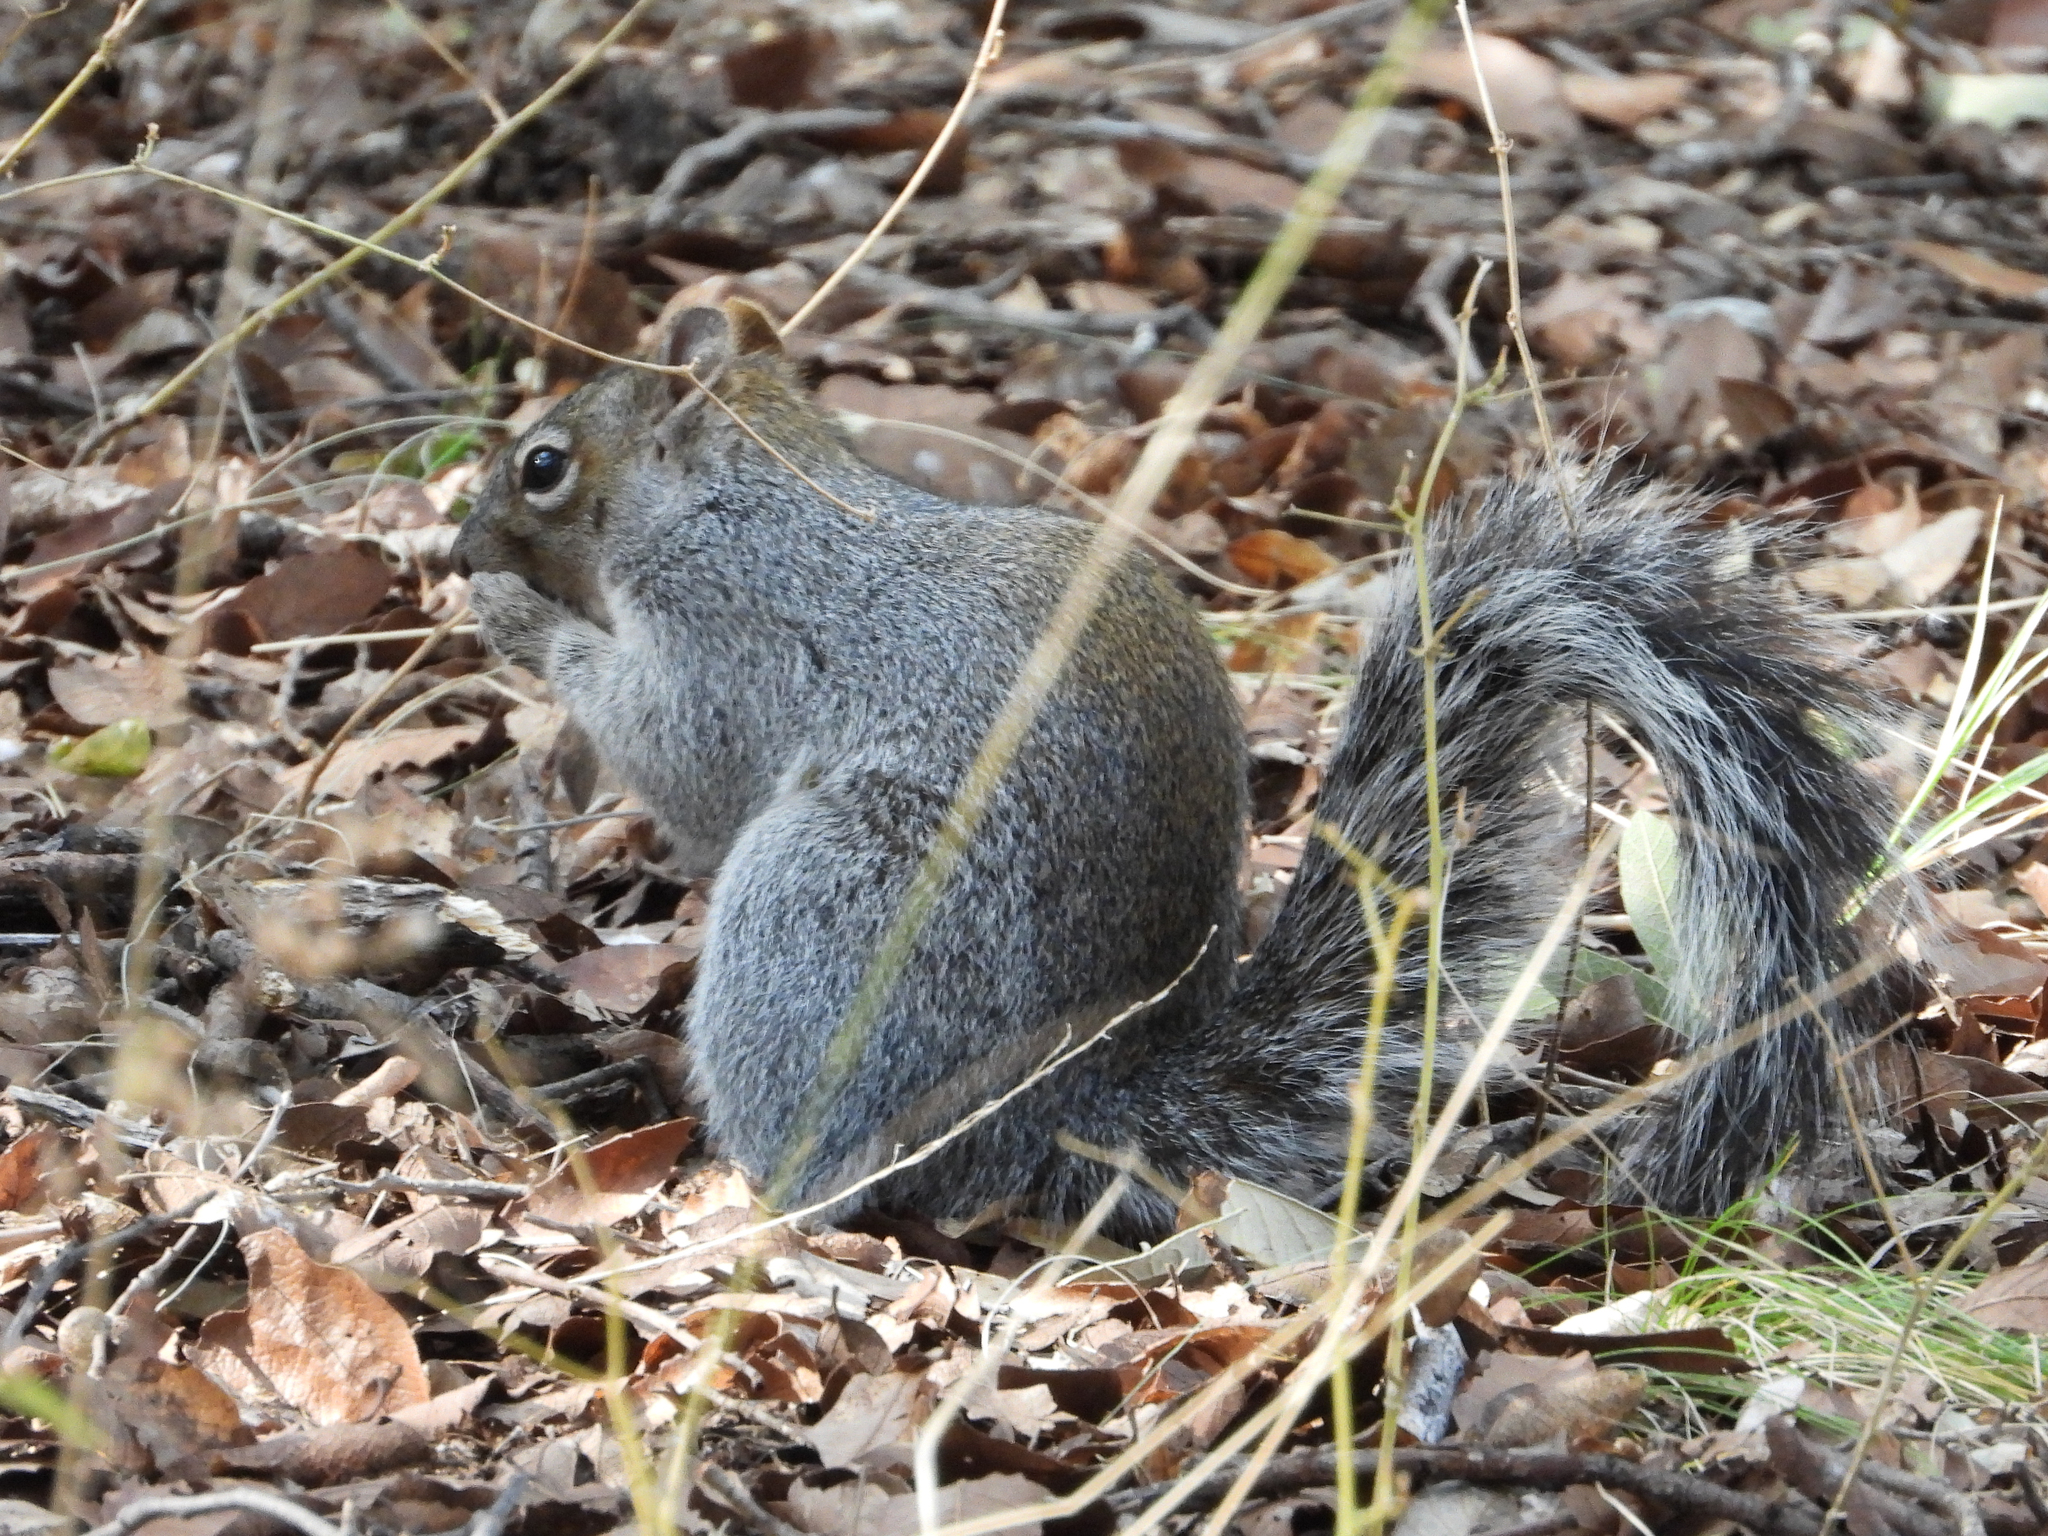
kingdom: Animalia
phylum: Chordata
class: Mammalia
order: Rodentia
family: Sciuridae
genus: Sciurus
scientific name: Sciurus arizonensis
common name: Arizona gray squirrel
